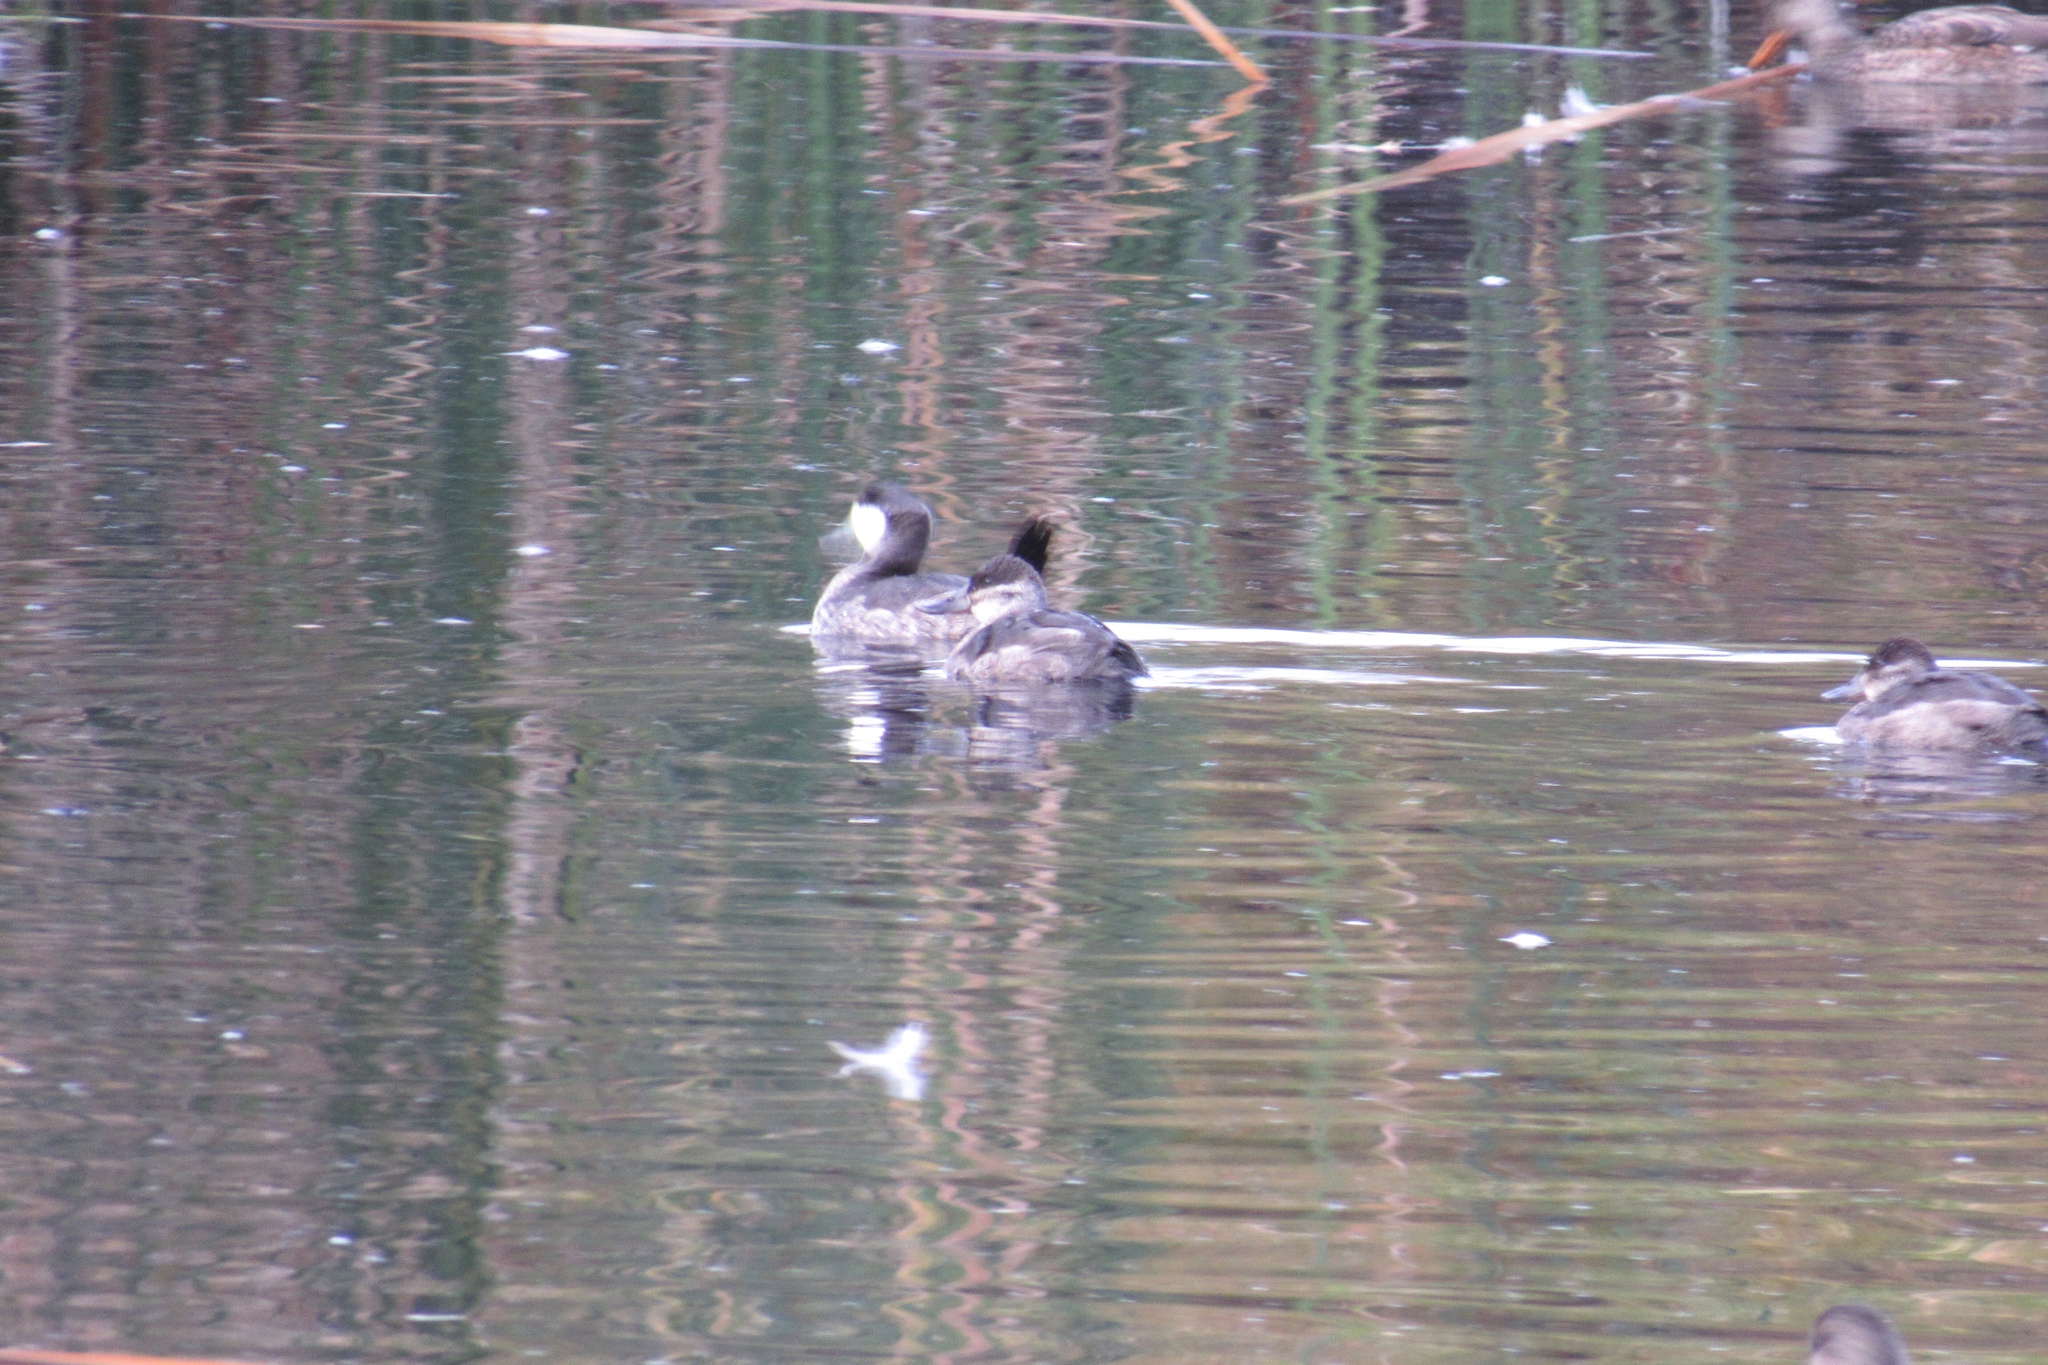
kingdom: Animalia
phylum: Chordata
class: Aves
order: Anseriformes
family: Anatidae
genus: Oxyura
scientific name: Oxyura jamaicensis
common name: Ruddy duck
